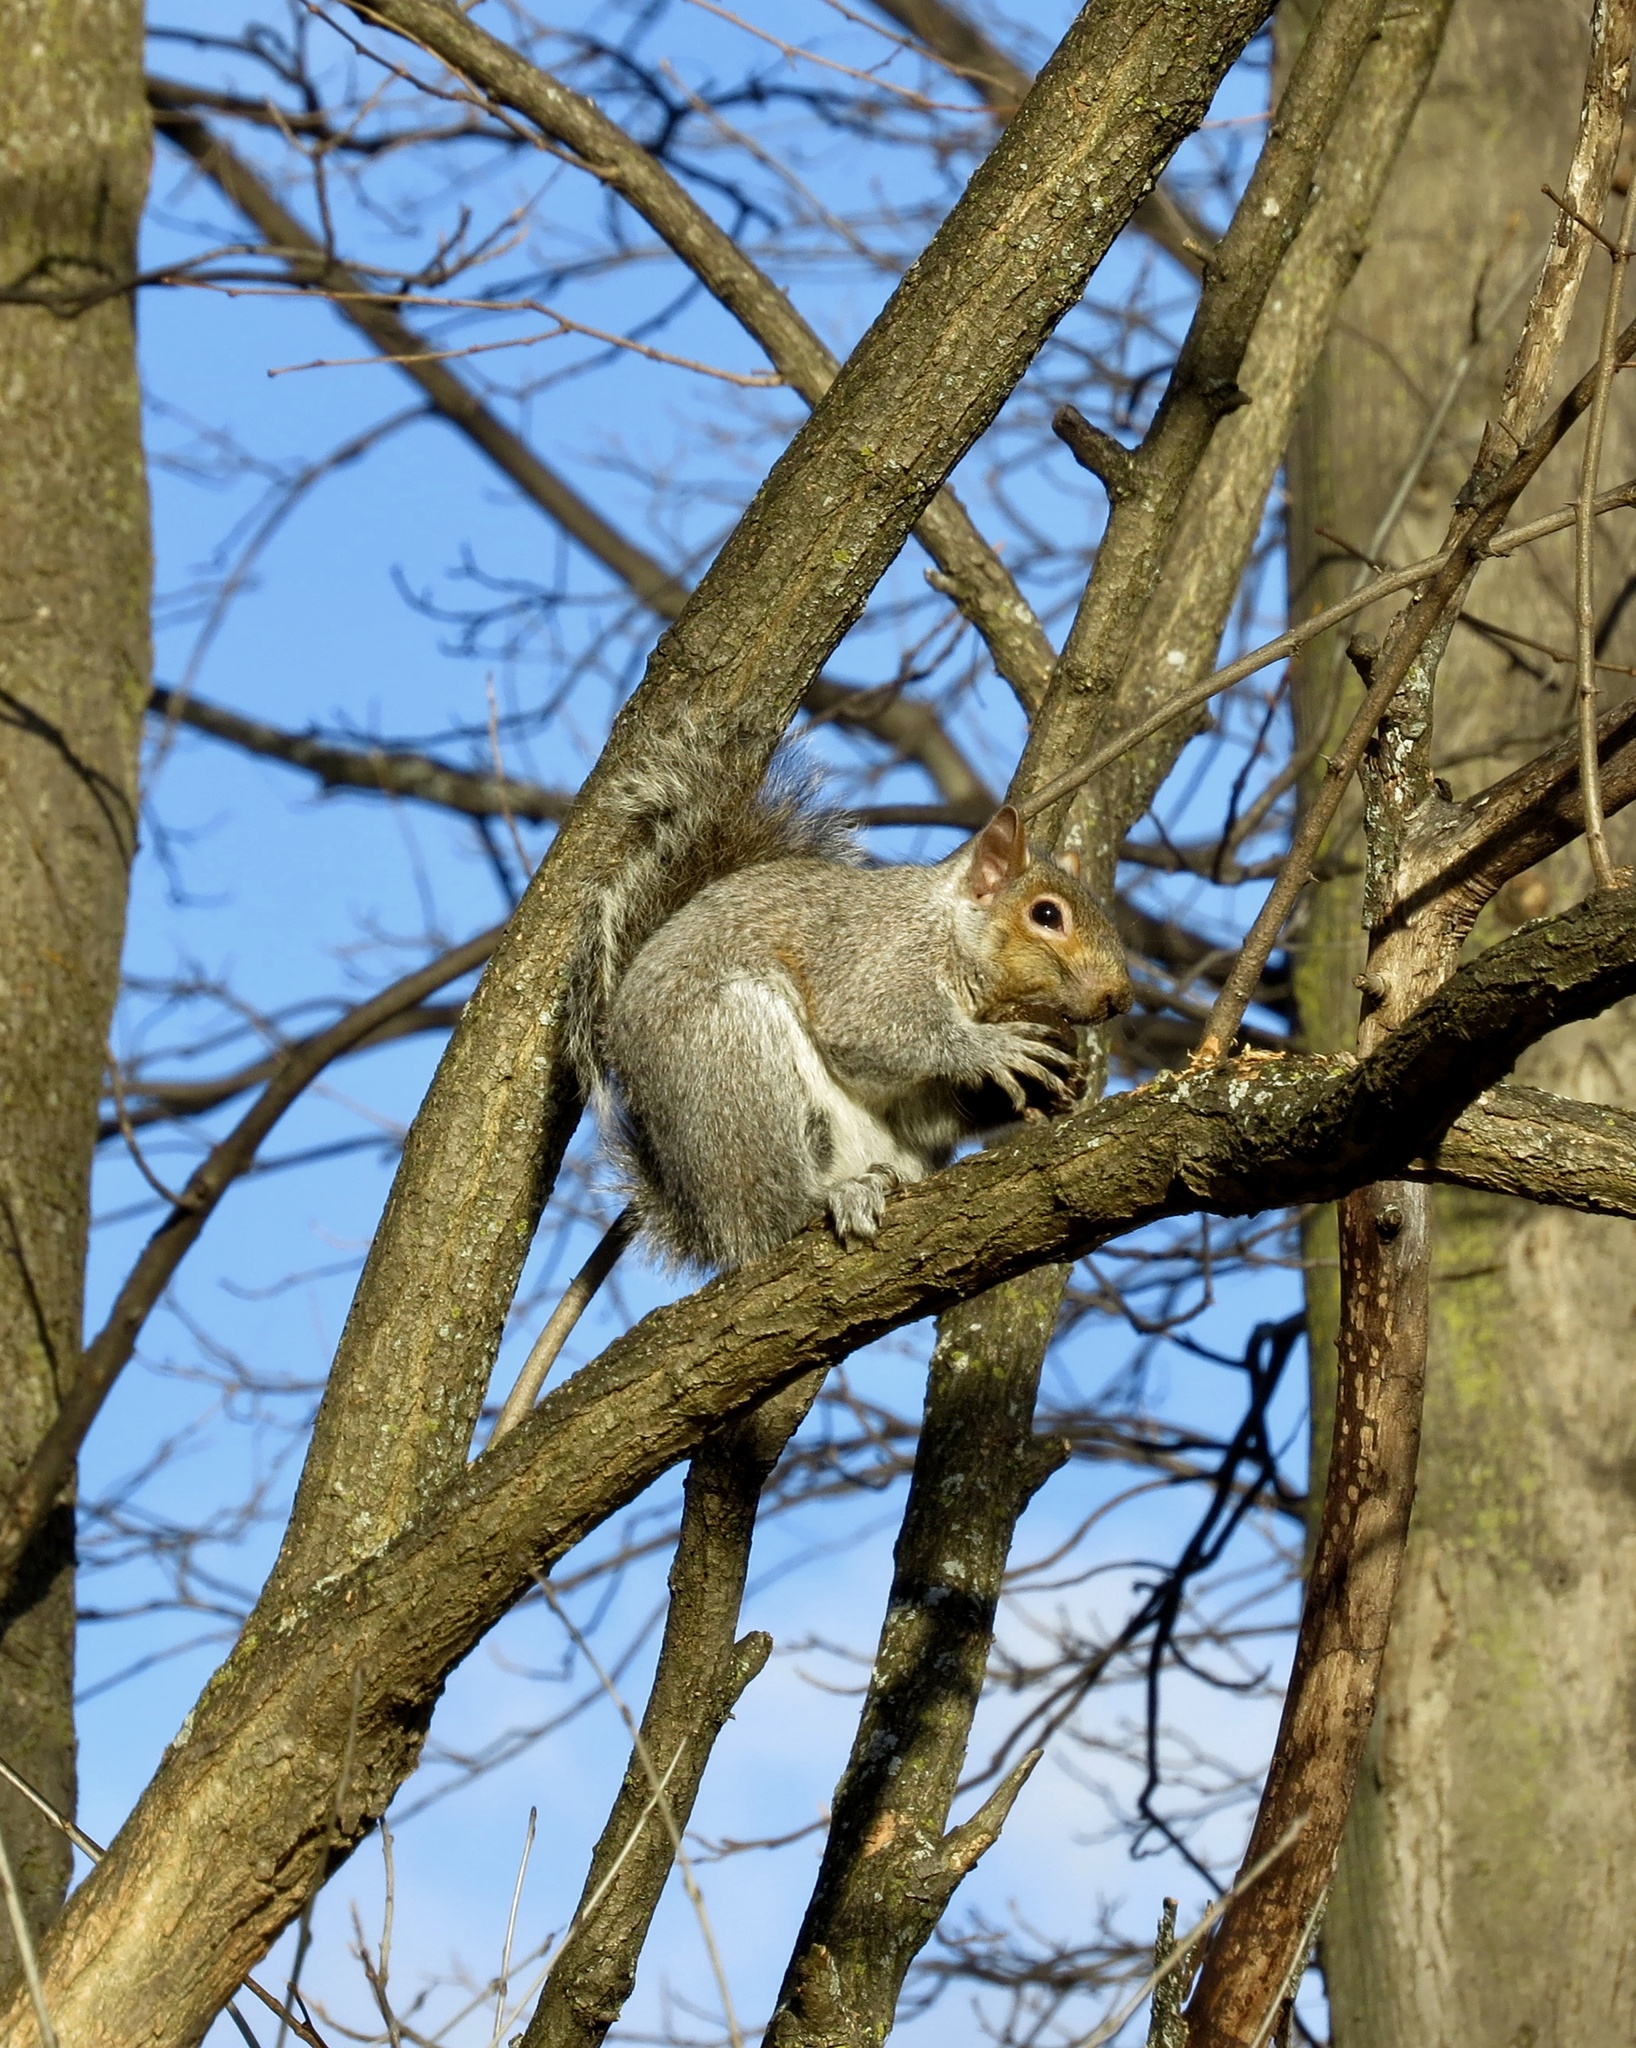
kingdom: Animalia
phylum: Chordata
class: Mammalia
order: Rodentia
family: Sciuridae
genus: Sciurus
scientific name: Sciurus carolinensis
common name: Eastern gray squirrel
